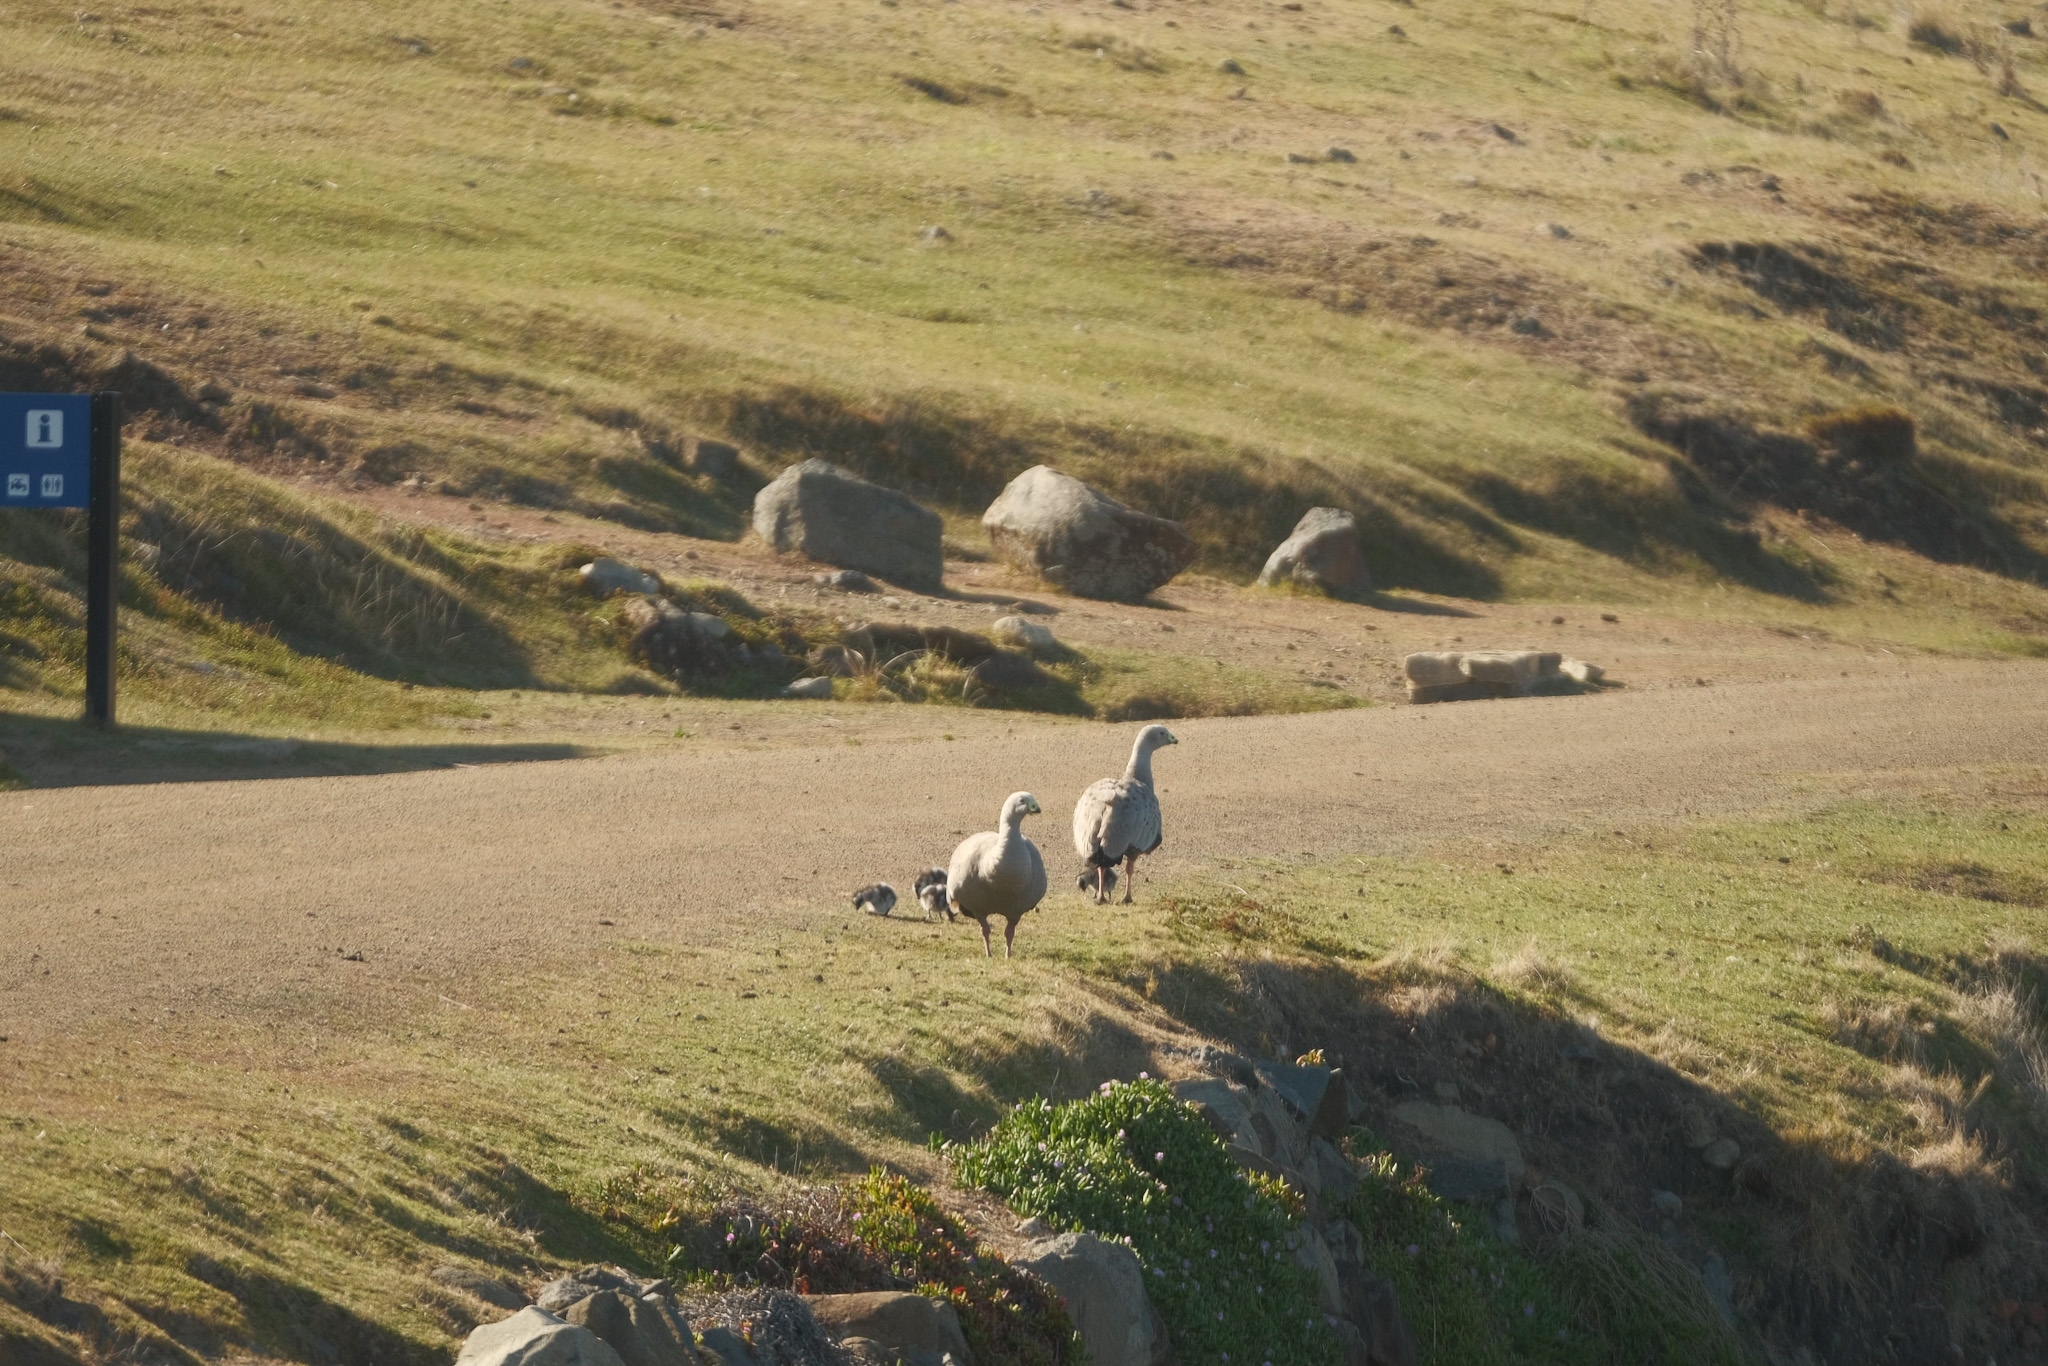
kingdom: Animalia
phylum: Chordata
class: Aves
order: Anseriformes
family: Anatidae
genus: Cereopsis
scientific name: Cereopsis novaehollandiae
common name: Cape barren goose
